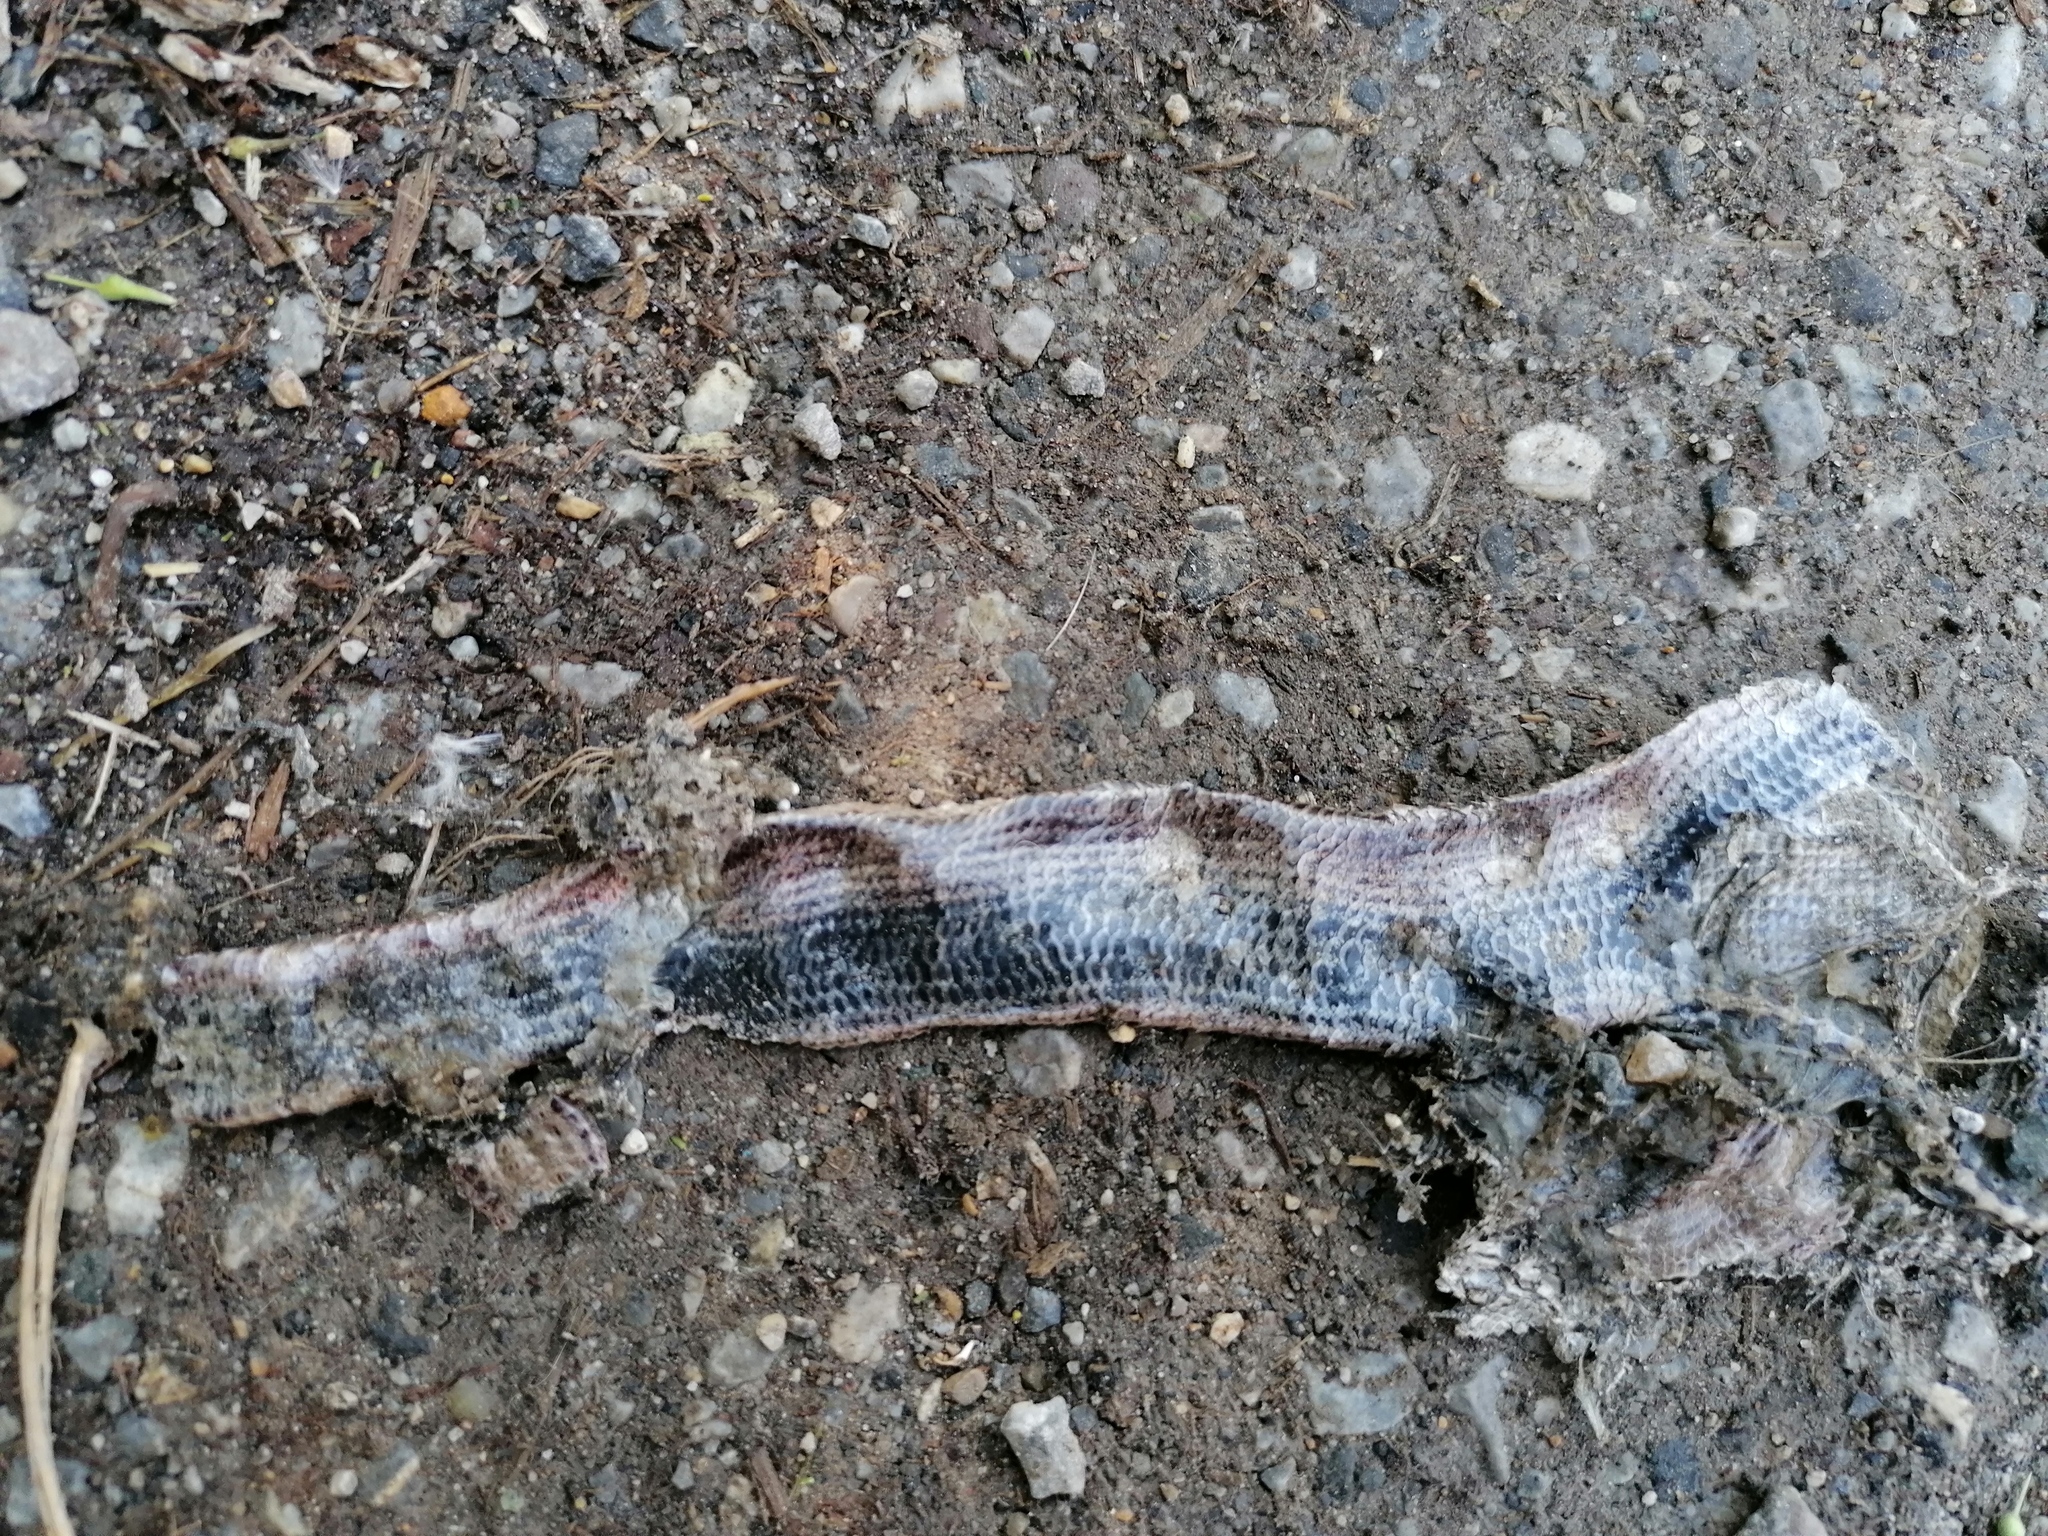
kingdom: Animalia
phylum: Chordata
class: Squamata
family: Anguidae
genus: Anguis
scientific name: Anguis fragilis
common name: Slow worm
